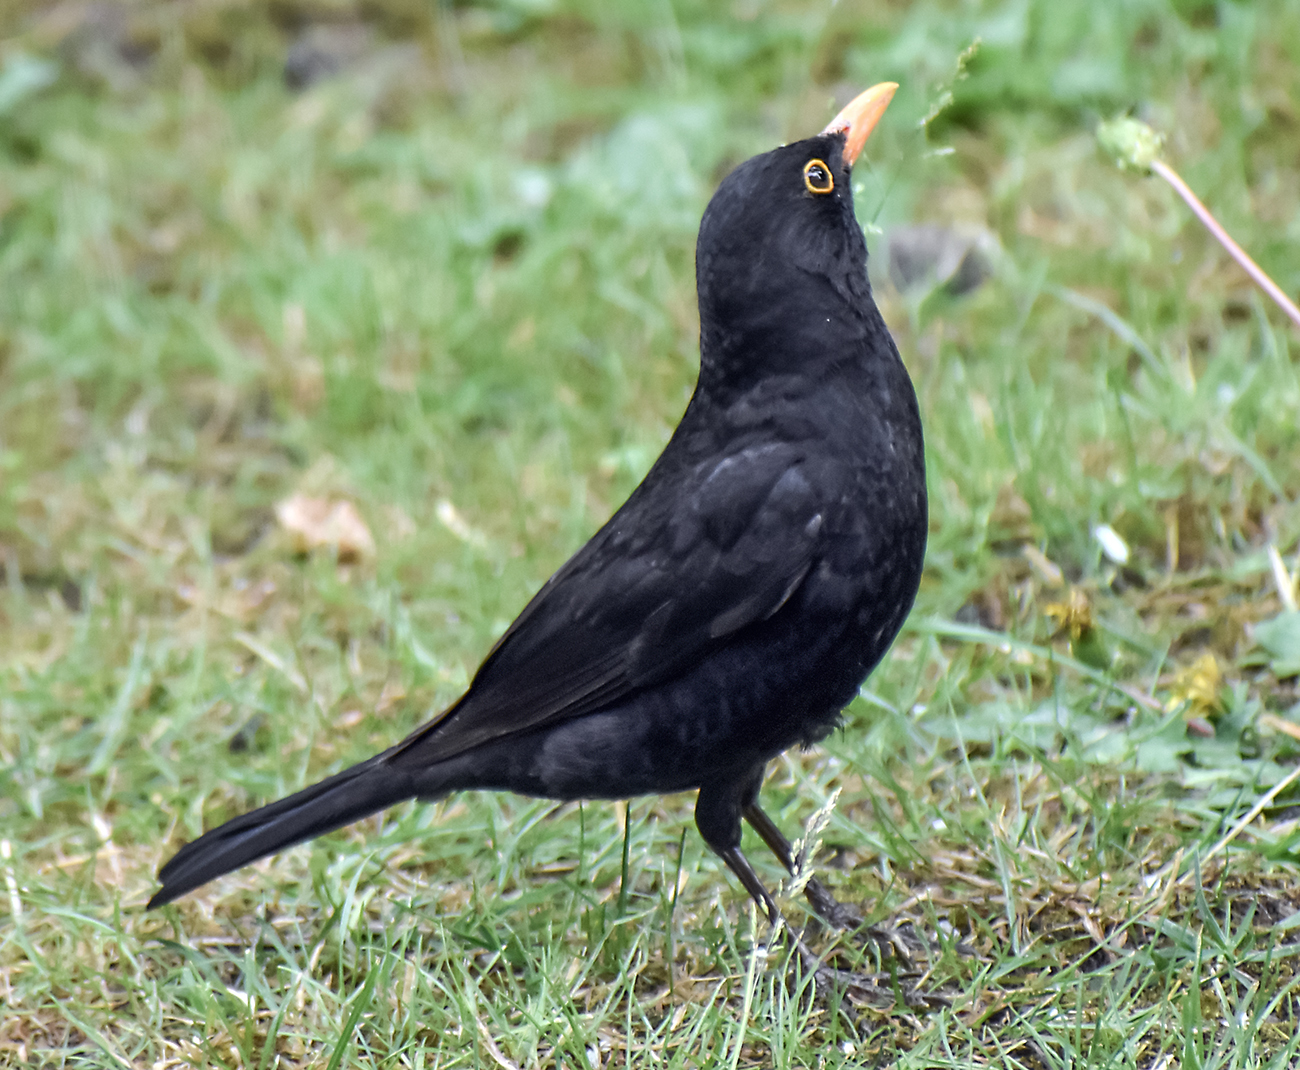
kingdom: Animalia
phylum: Chordata
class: Aves
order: Passeriformes
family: Turdidae
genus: Turdus
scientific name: Turdus merula
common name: Common blackbird
